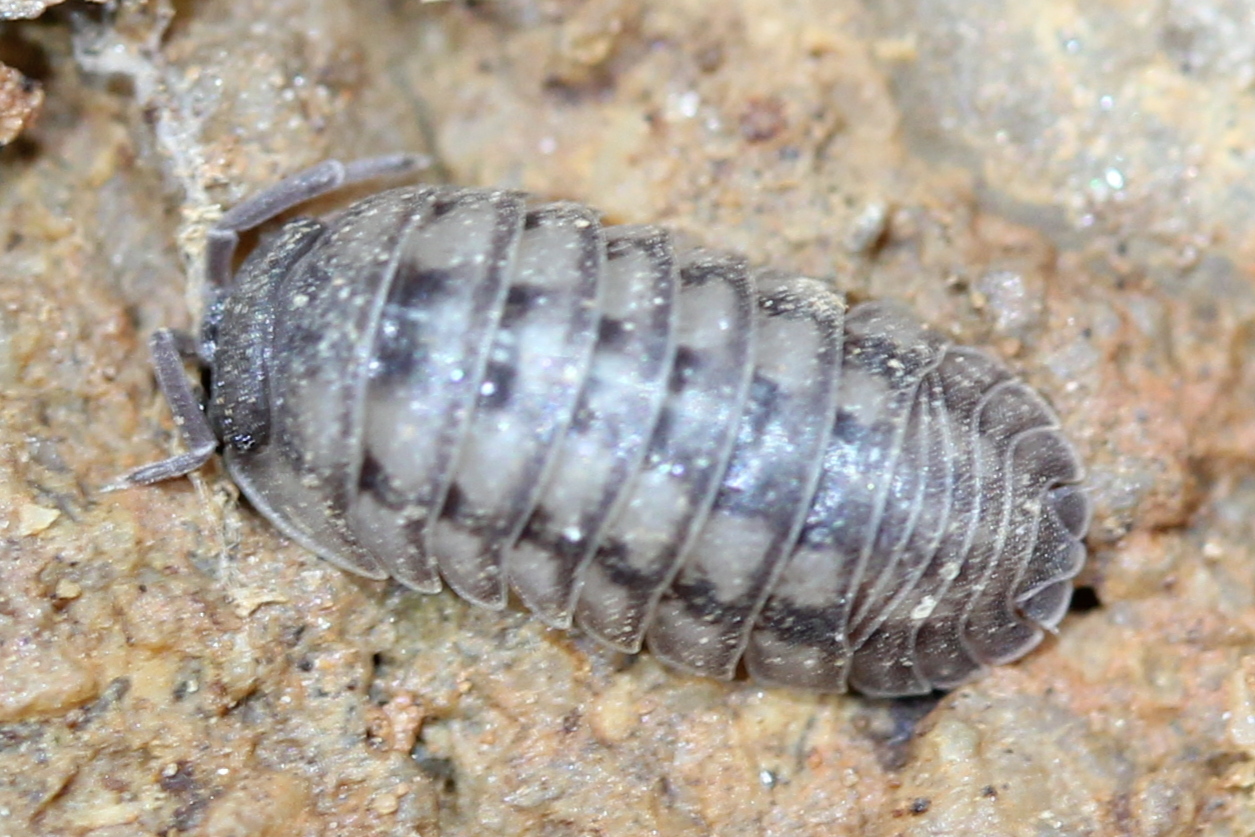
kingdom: Animalia
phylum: Arthropoda
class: Malacostraca
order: Isopoda
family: Armadillidiidae
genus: Armadillidium
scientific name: Armadillidium nasatum
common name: Isopod
